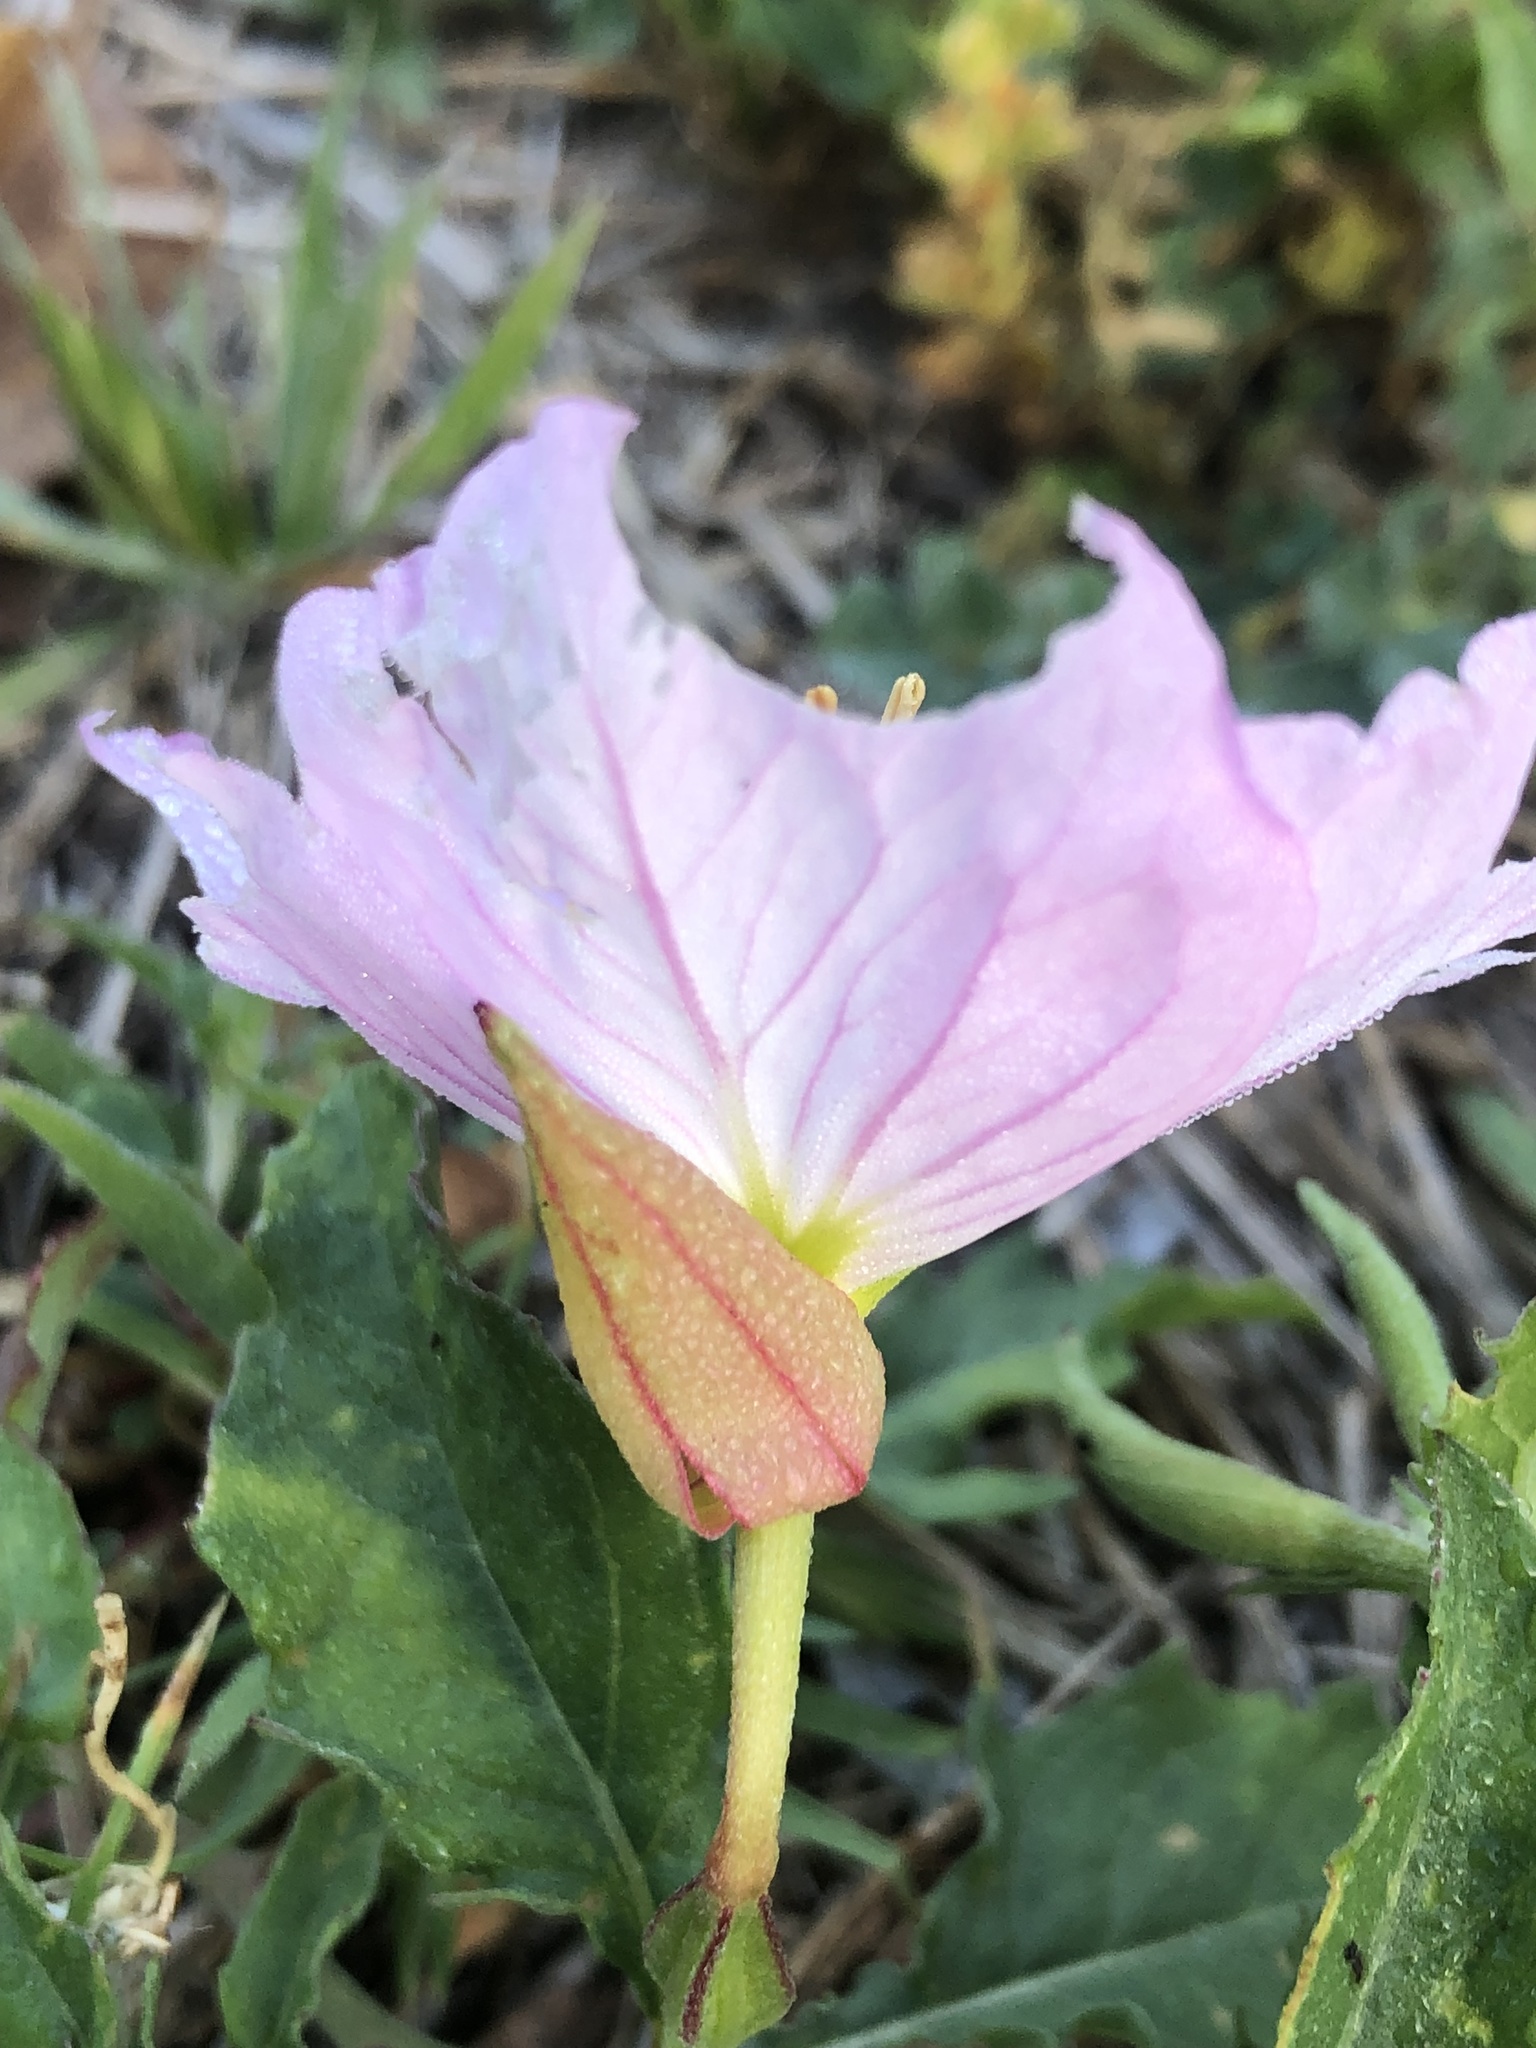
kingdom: Plantae
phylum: Tracheophyta
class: Magnoliopsida
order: Myrtales
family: Onagraceae
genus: Oenothera
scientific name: Oenothera speciosa
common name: White evening-primrose
